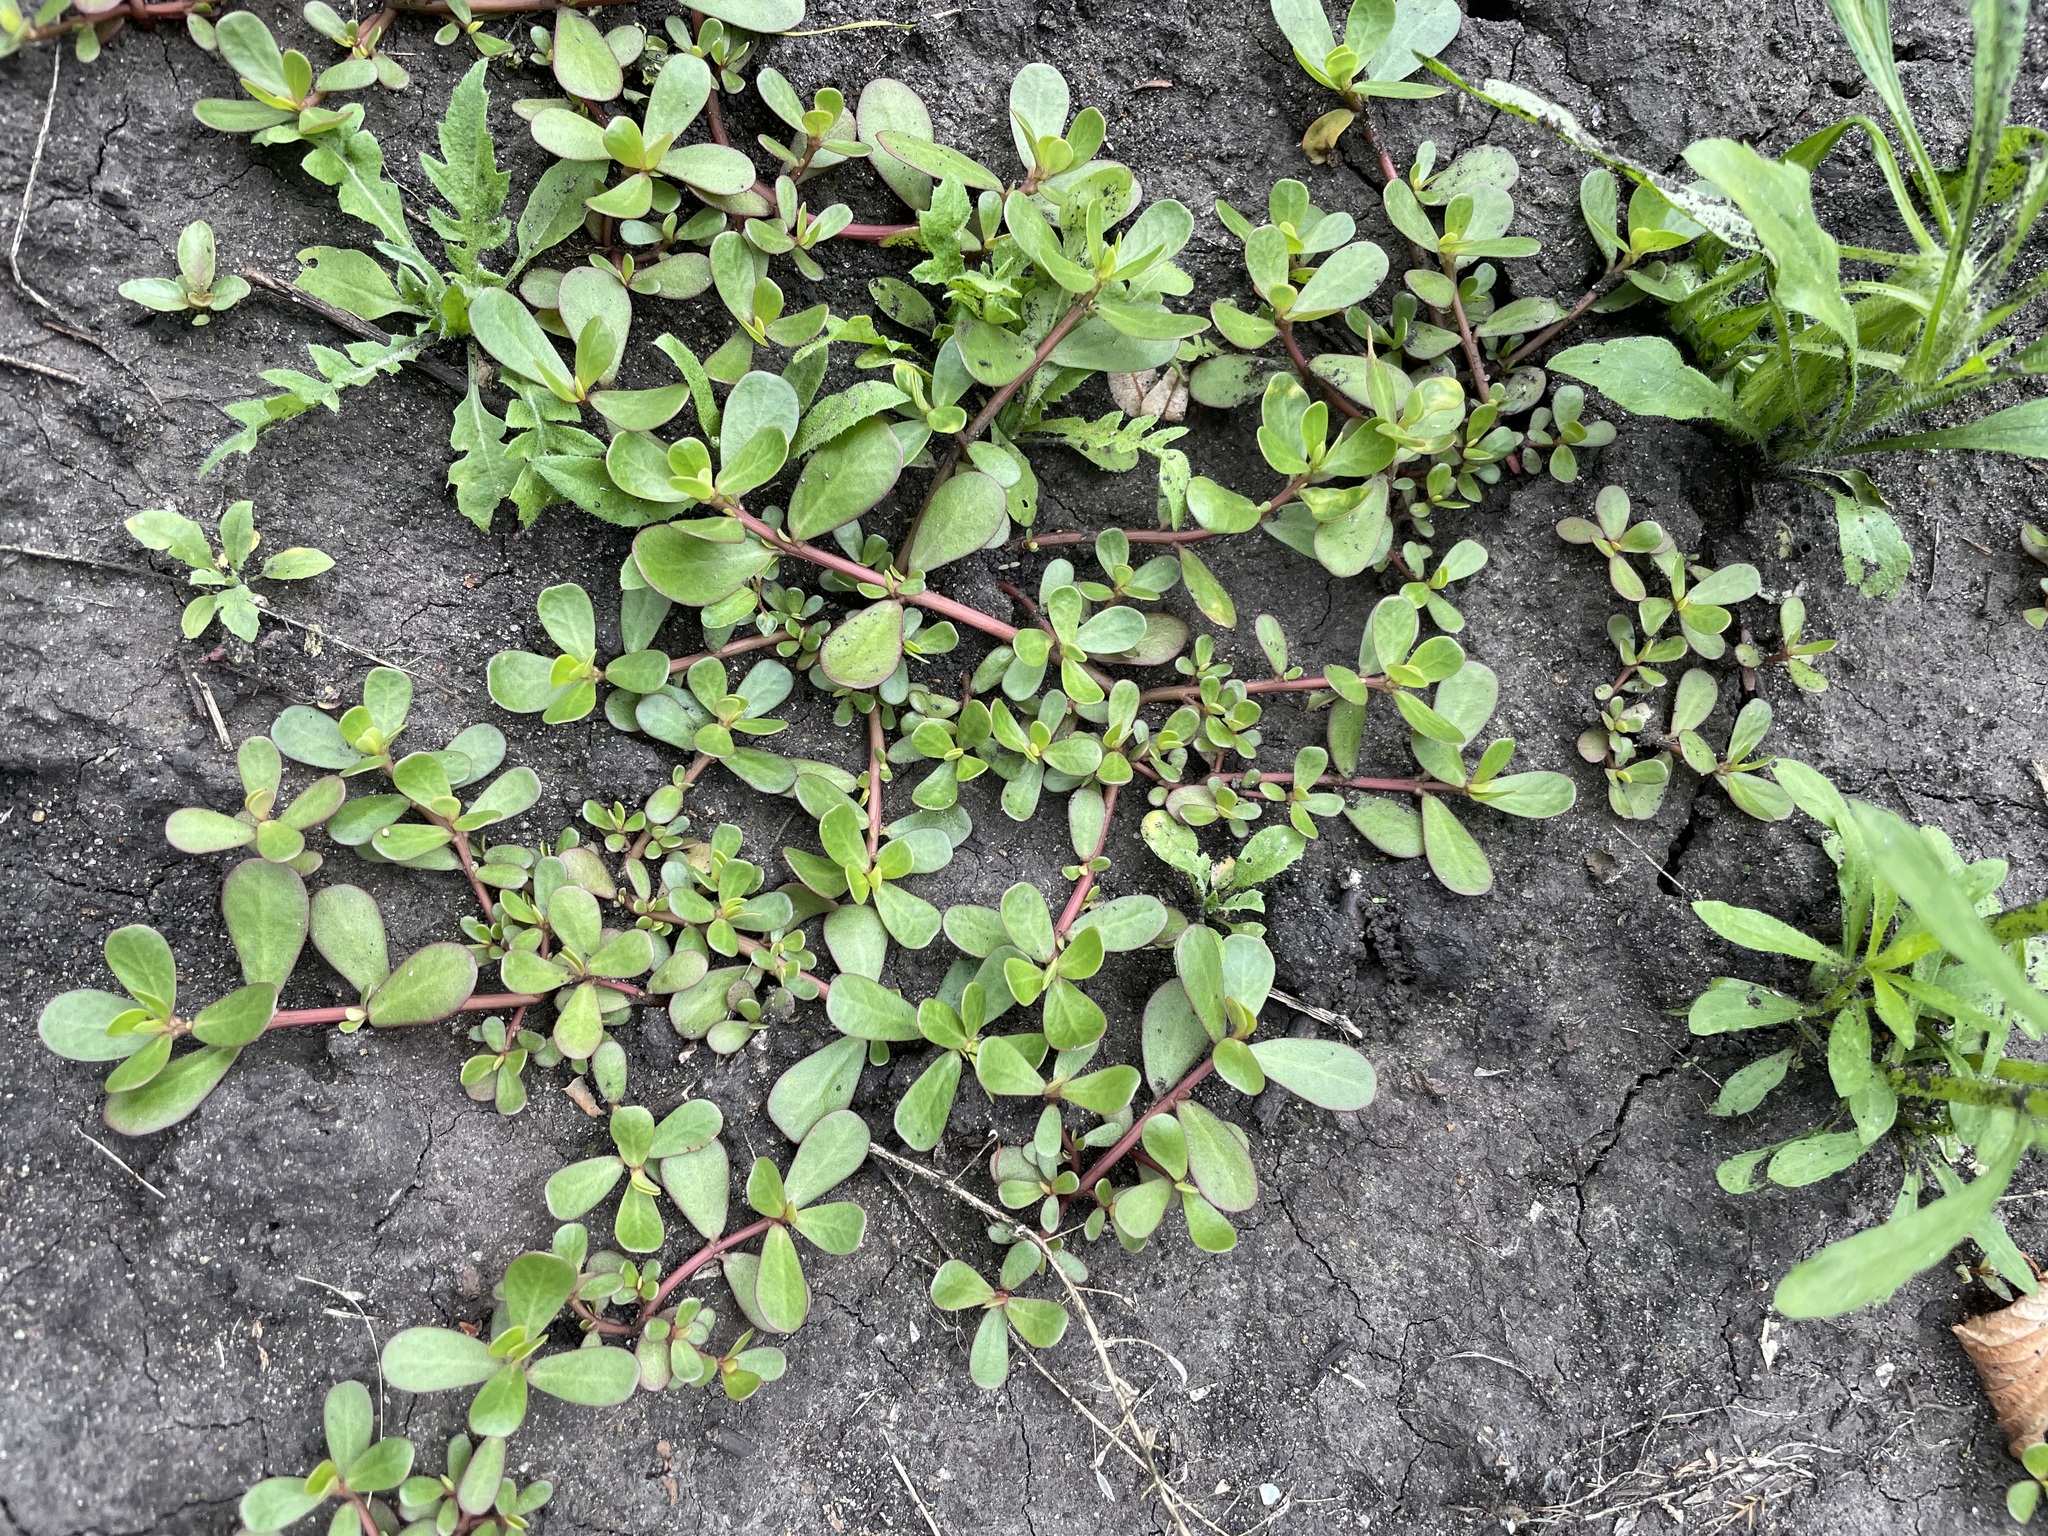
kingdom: Plantae
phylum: Tracheophyta
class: Magnoliopsida
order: Caryophyllales
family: Portulacaceae
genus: Portulaca
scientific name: Portulaca oleracea
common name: Common purslane
